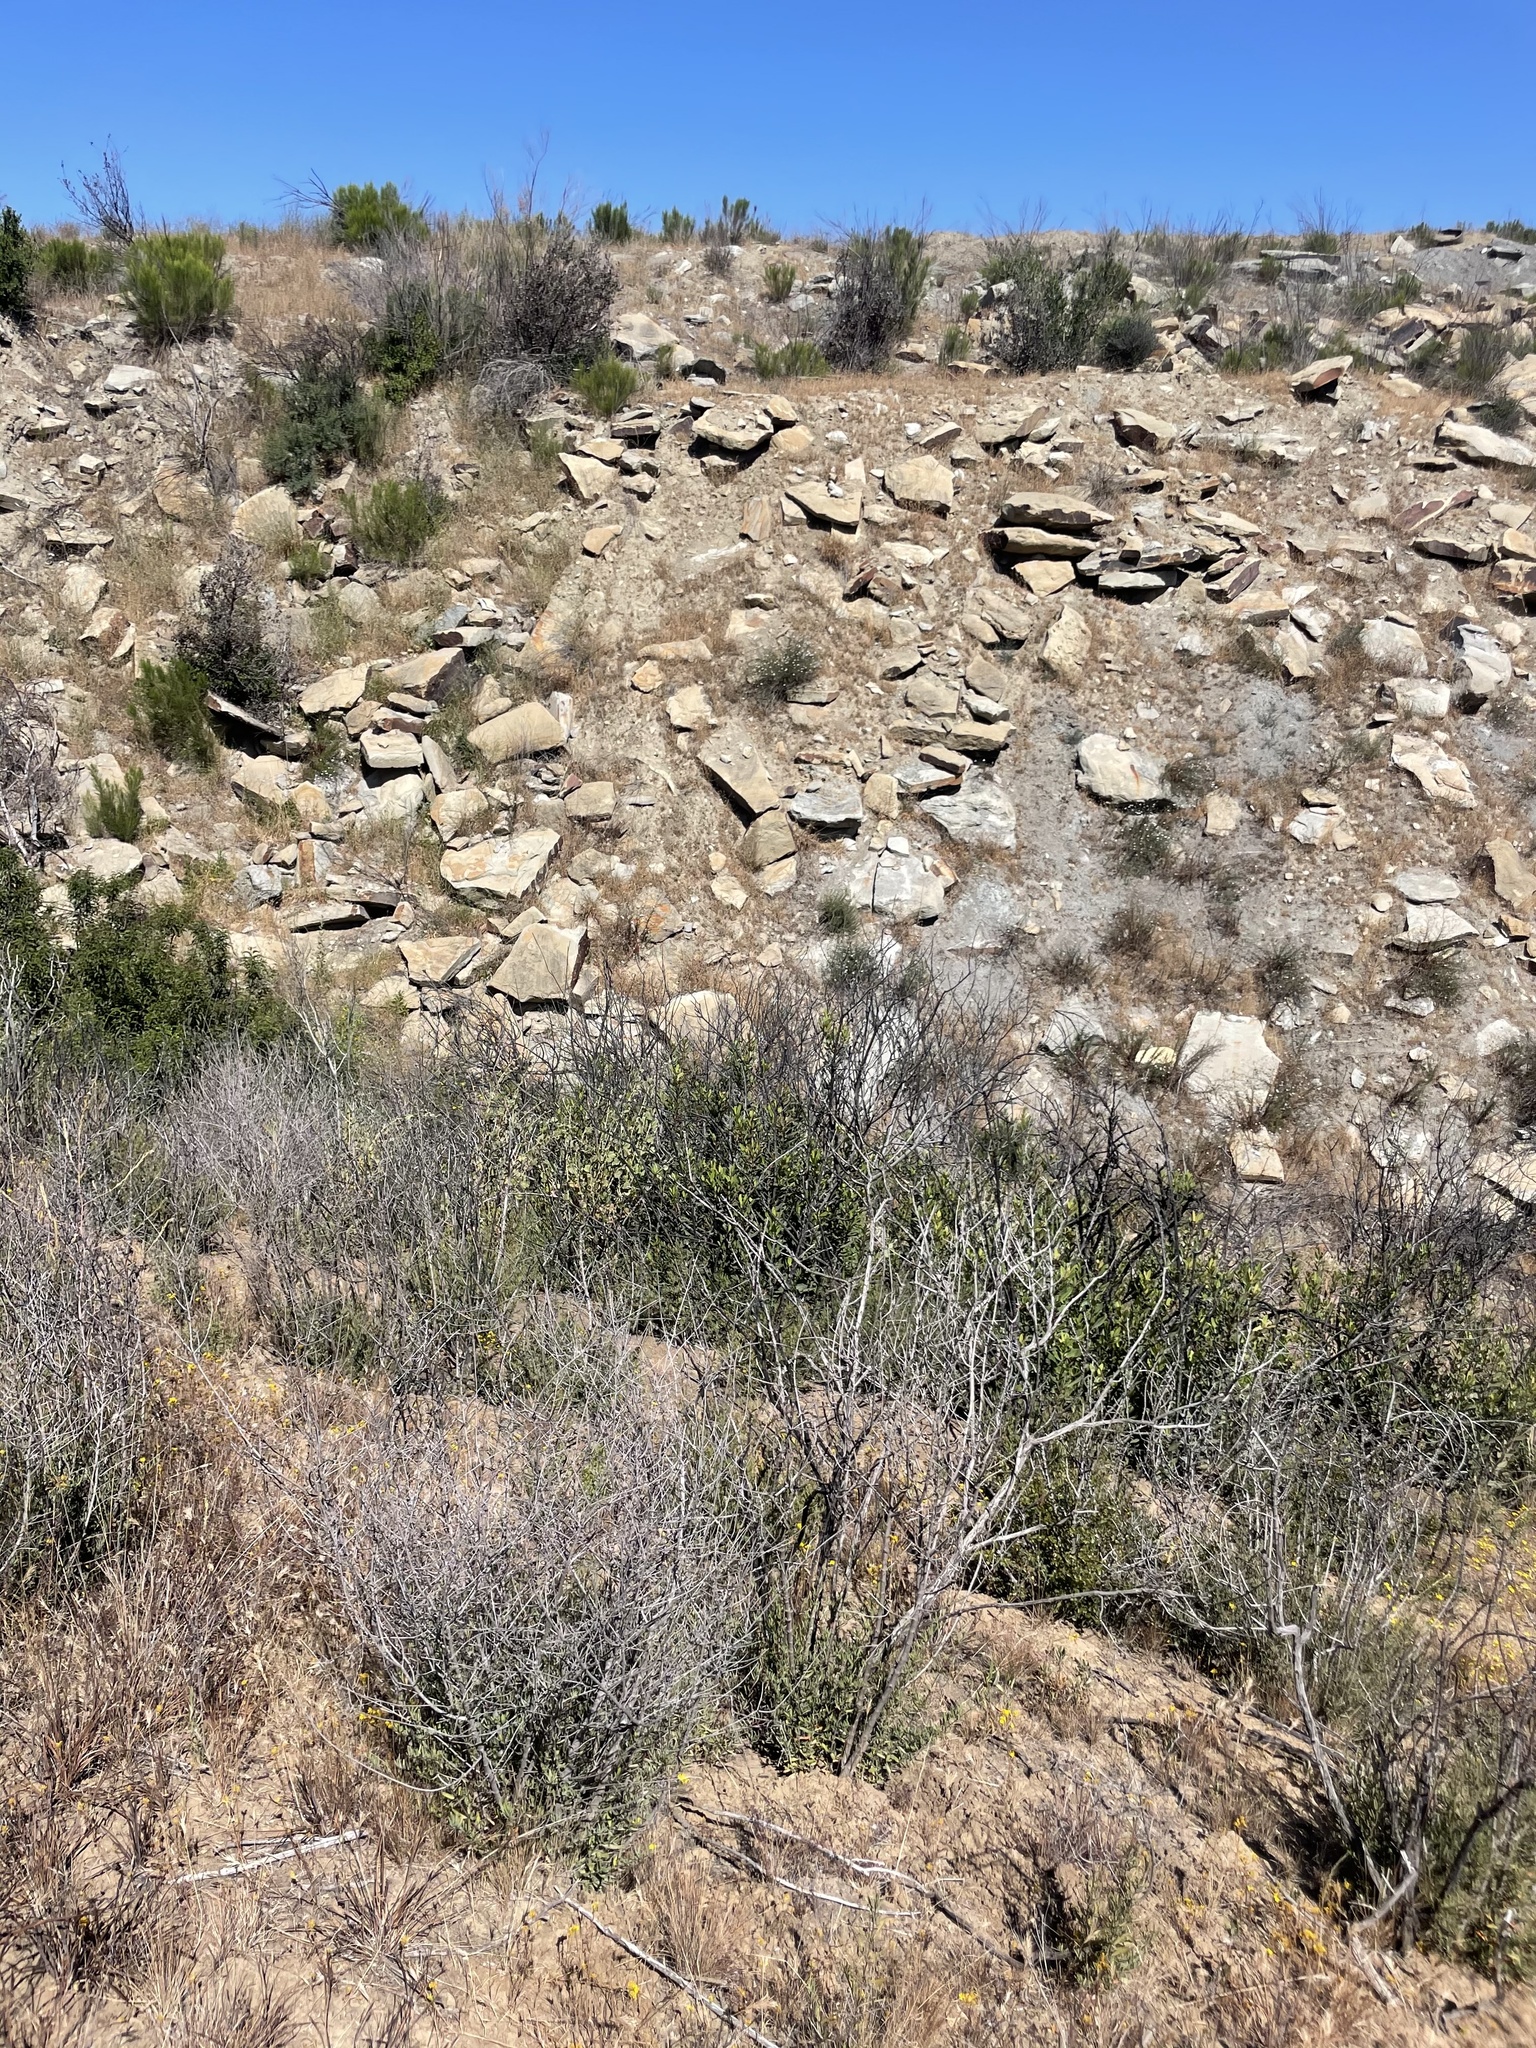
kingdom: Plantae
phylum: Tracheophyta
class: Magnoliopsida
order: Malpighiales
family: Picrodendraceae
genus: Tetracoccus
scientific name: Tetracoccus dioicus
